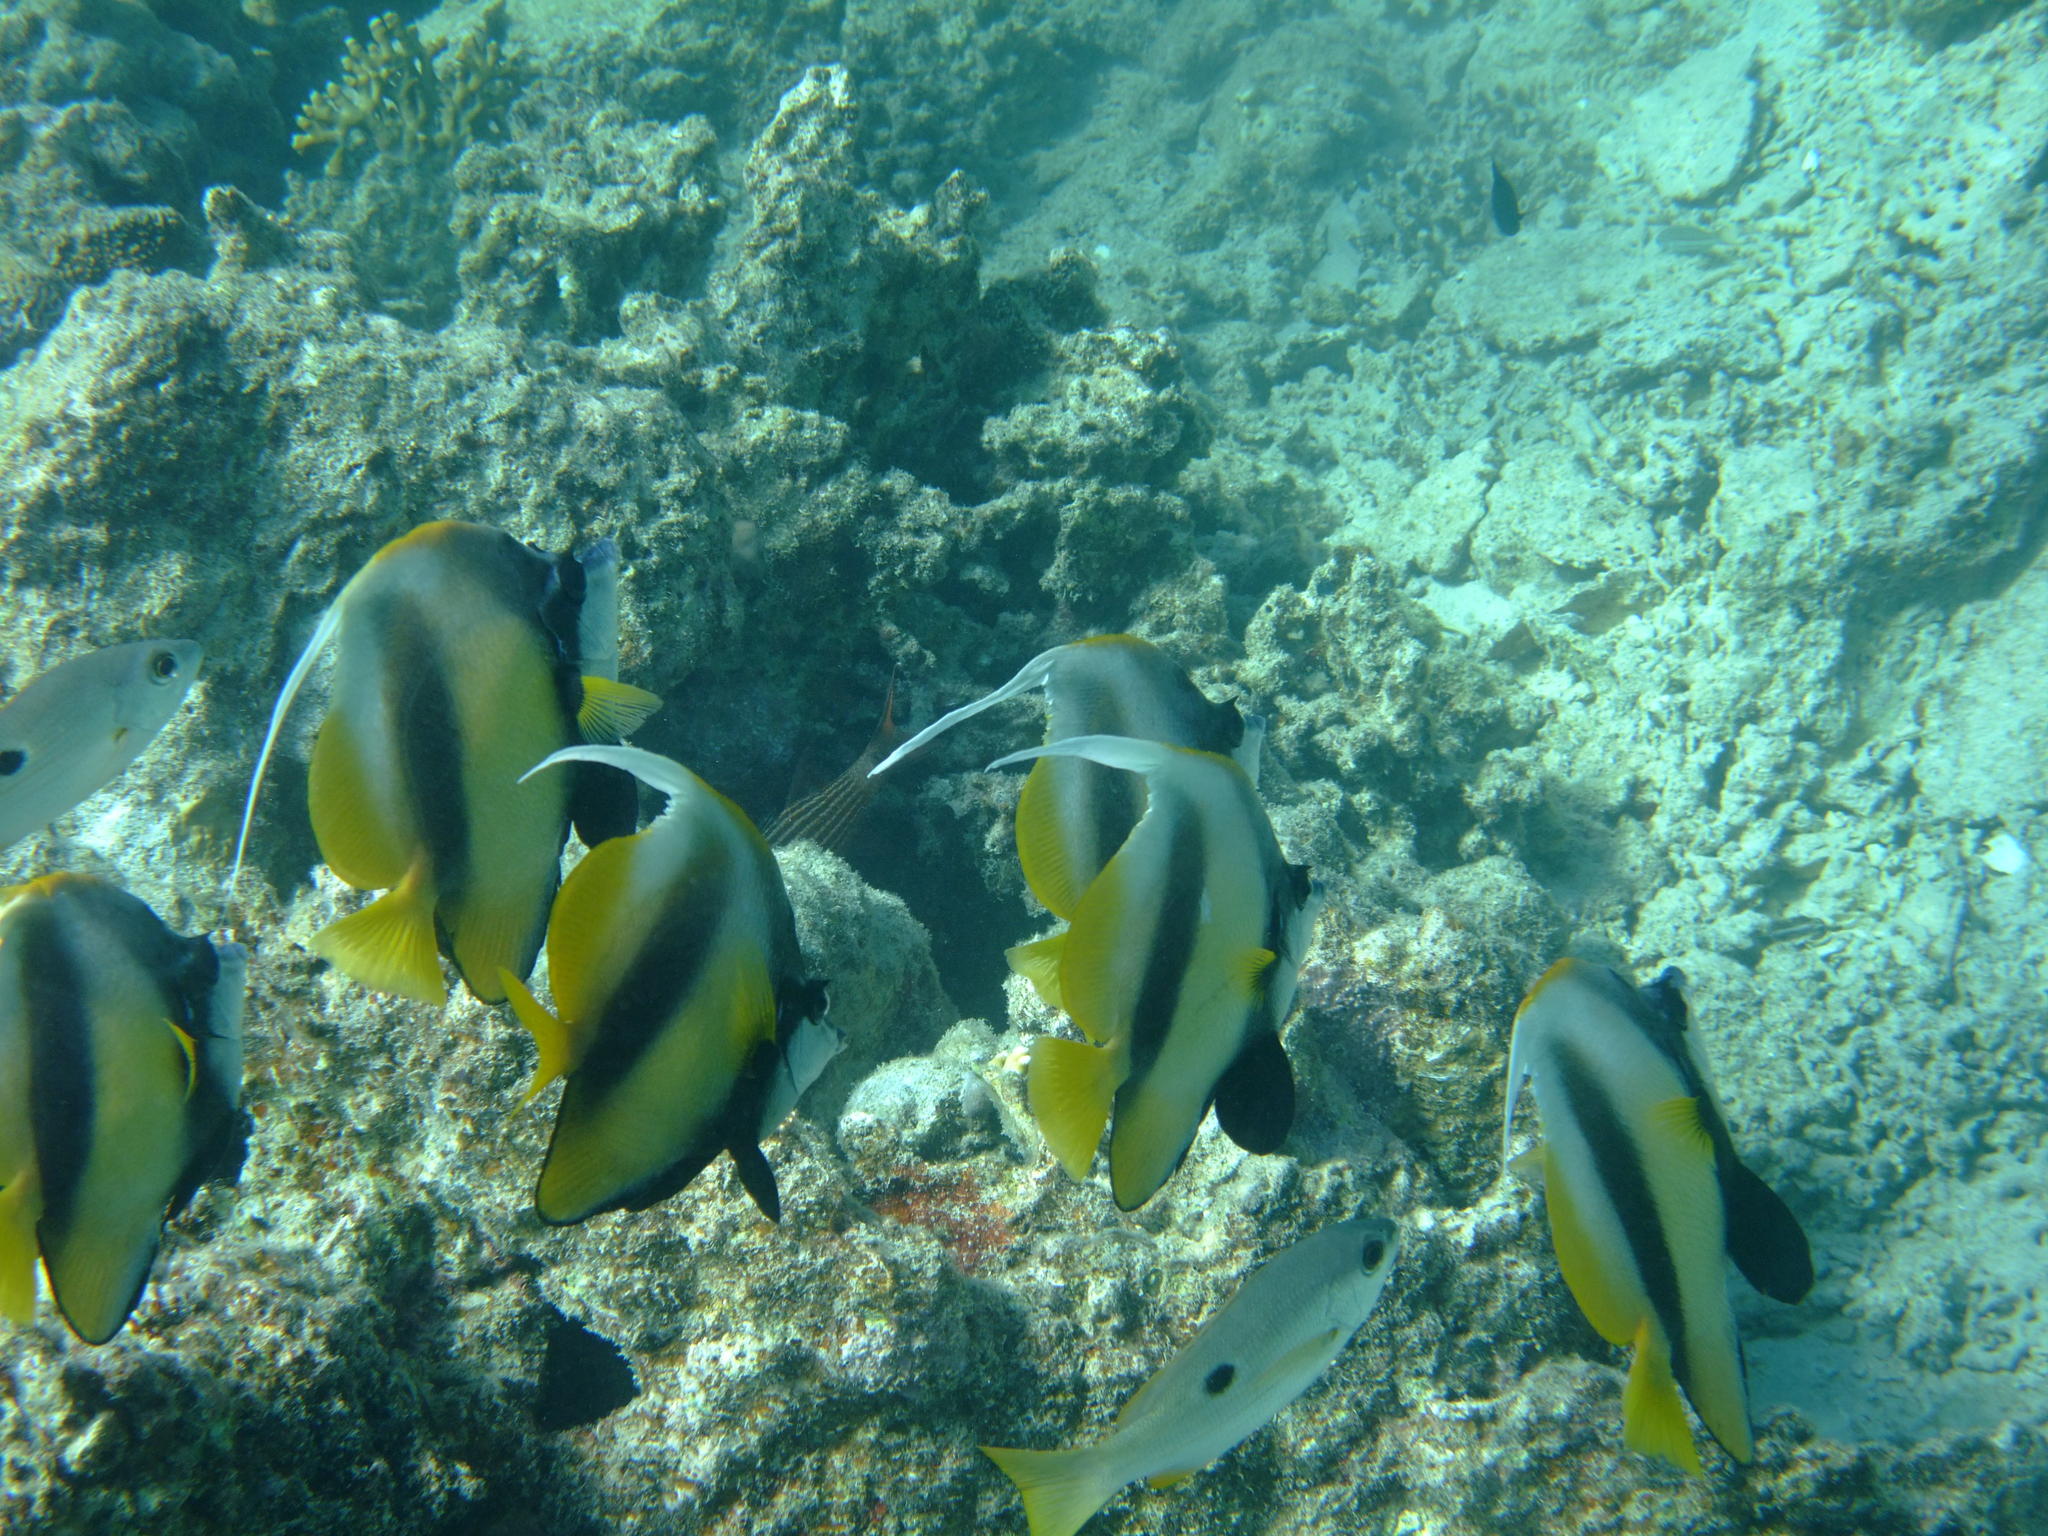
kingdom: Animalia
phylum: Chordata
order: Perciformes
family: Chaetodontidae
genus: Heniochus
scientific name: Heniochus intermedius
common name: Red sea bannerfish
